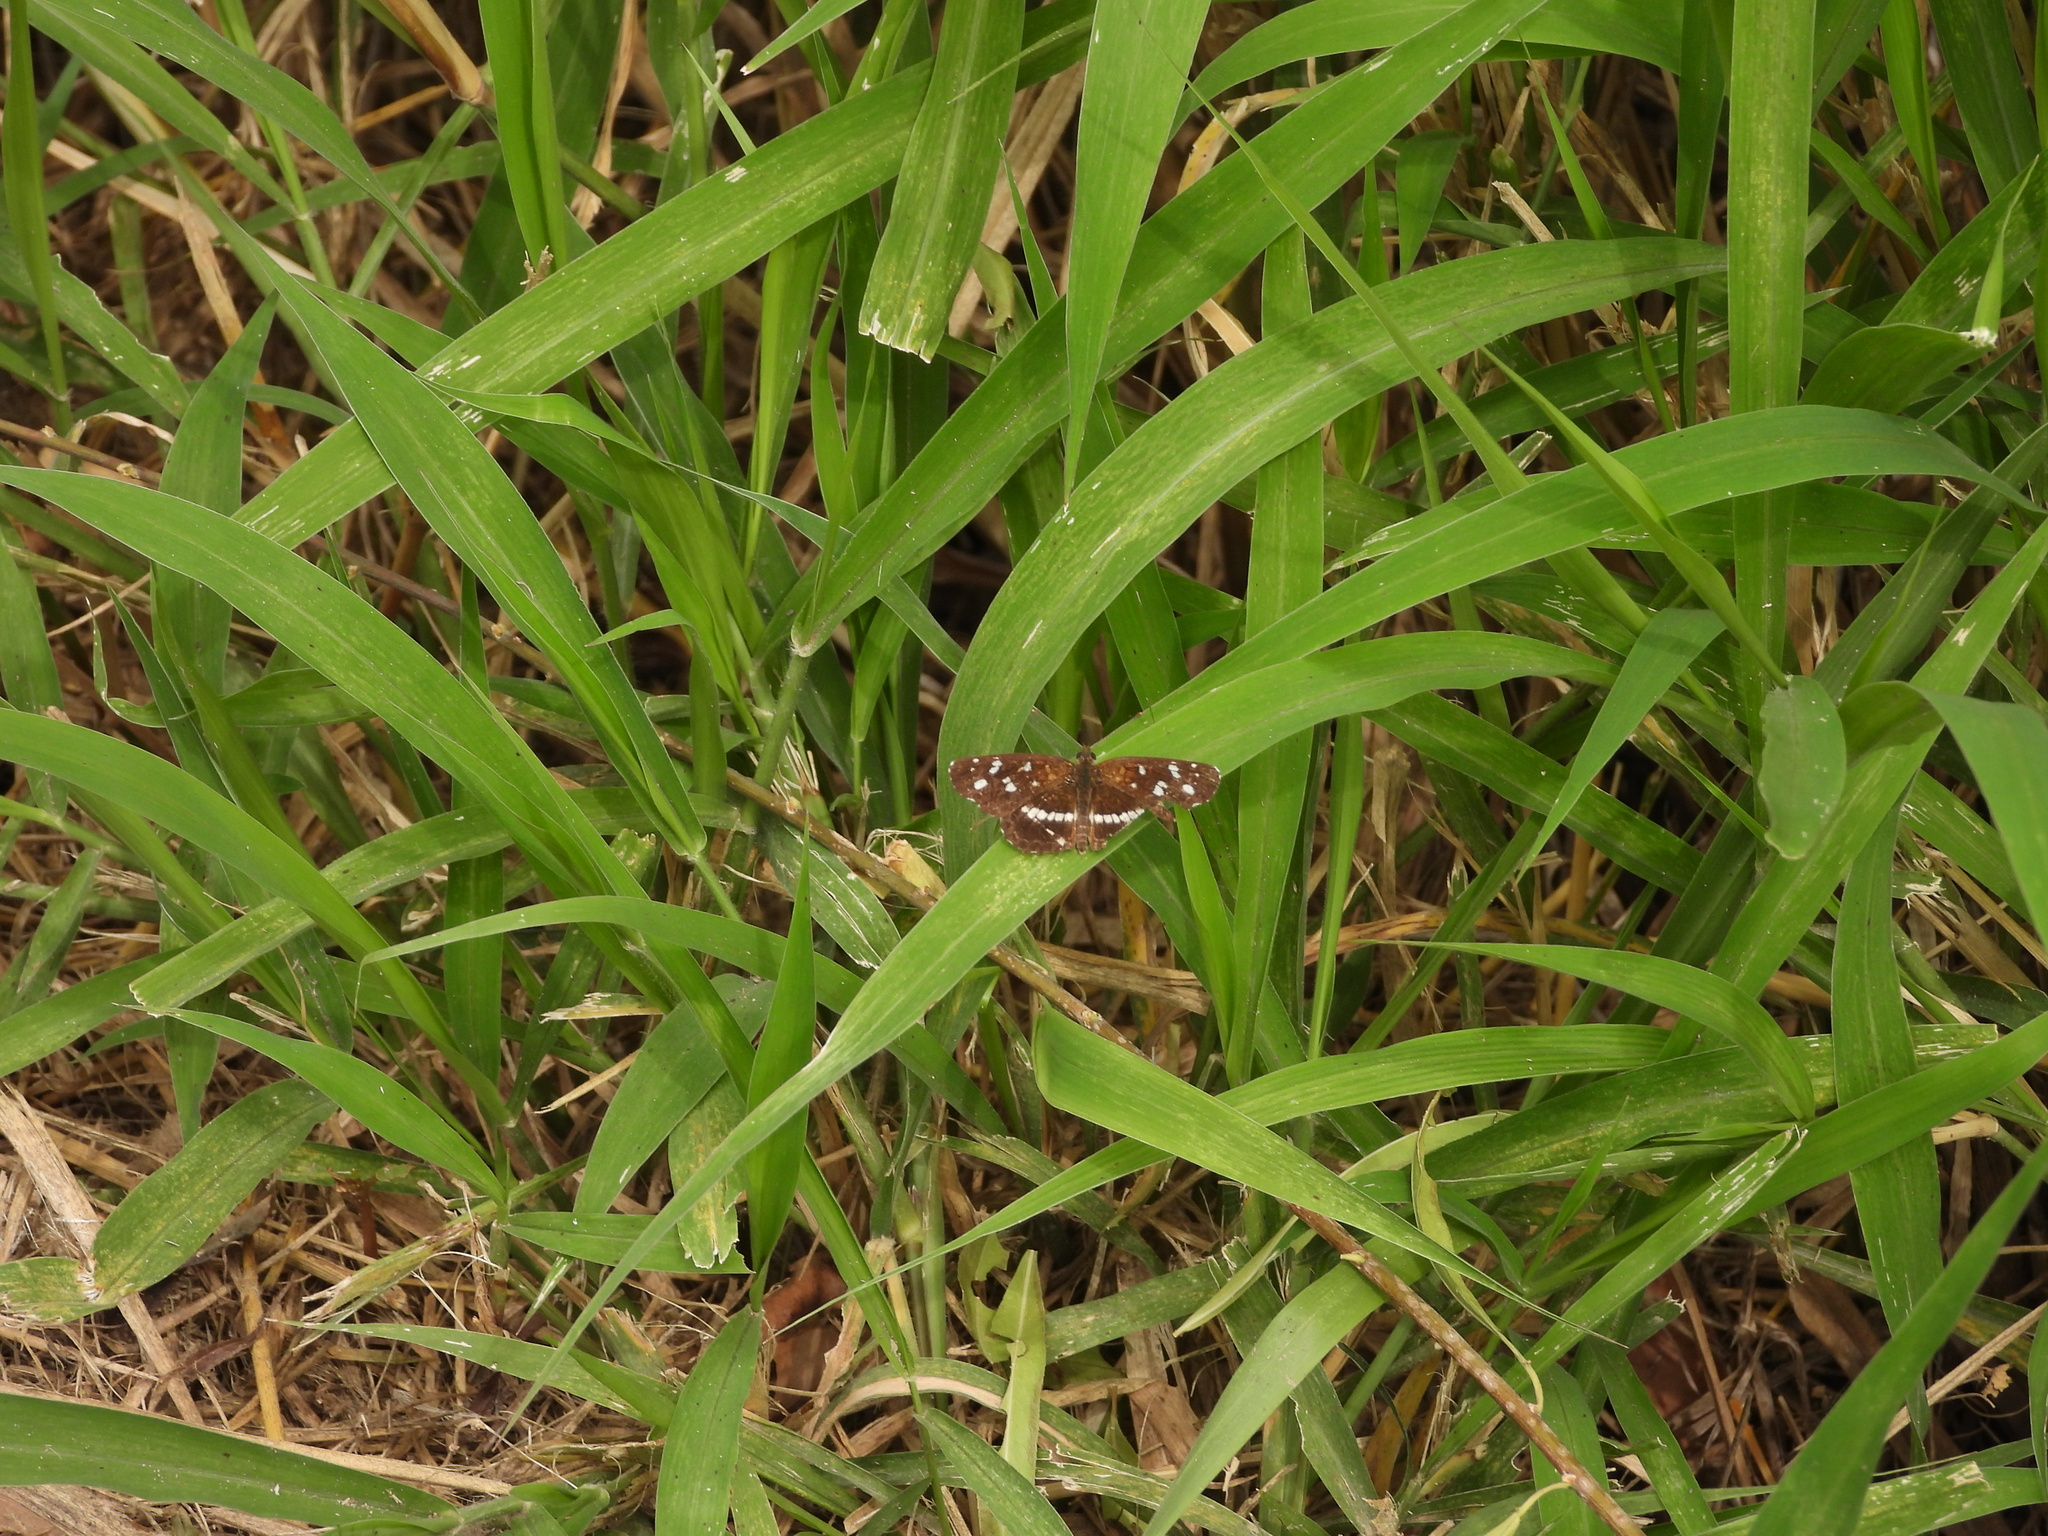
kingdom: Animalia
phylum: Arthropoda
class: Insecta
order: Lepidoptera
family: Nymphalidae
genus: Ortilia
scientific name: Ortilia ithra
